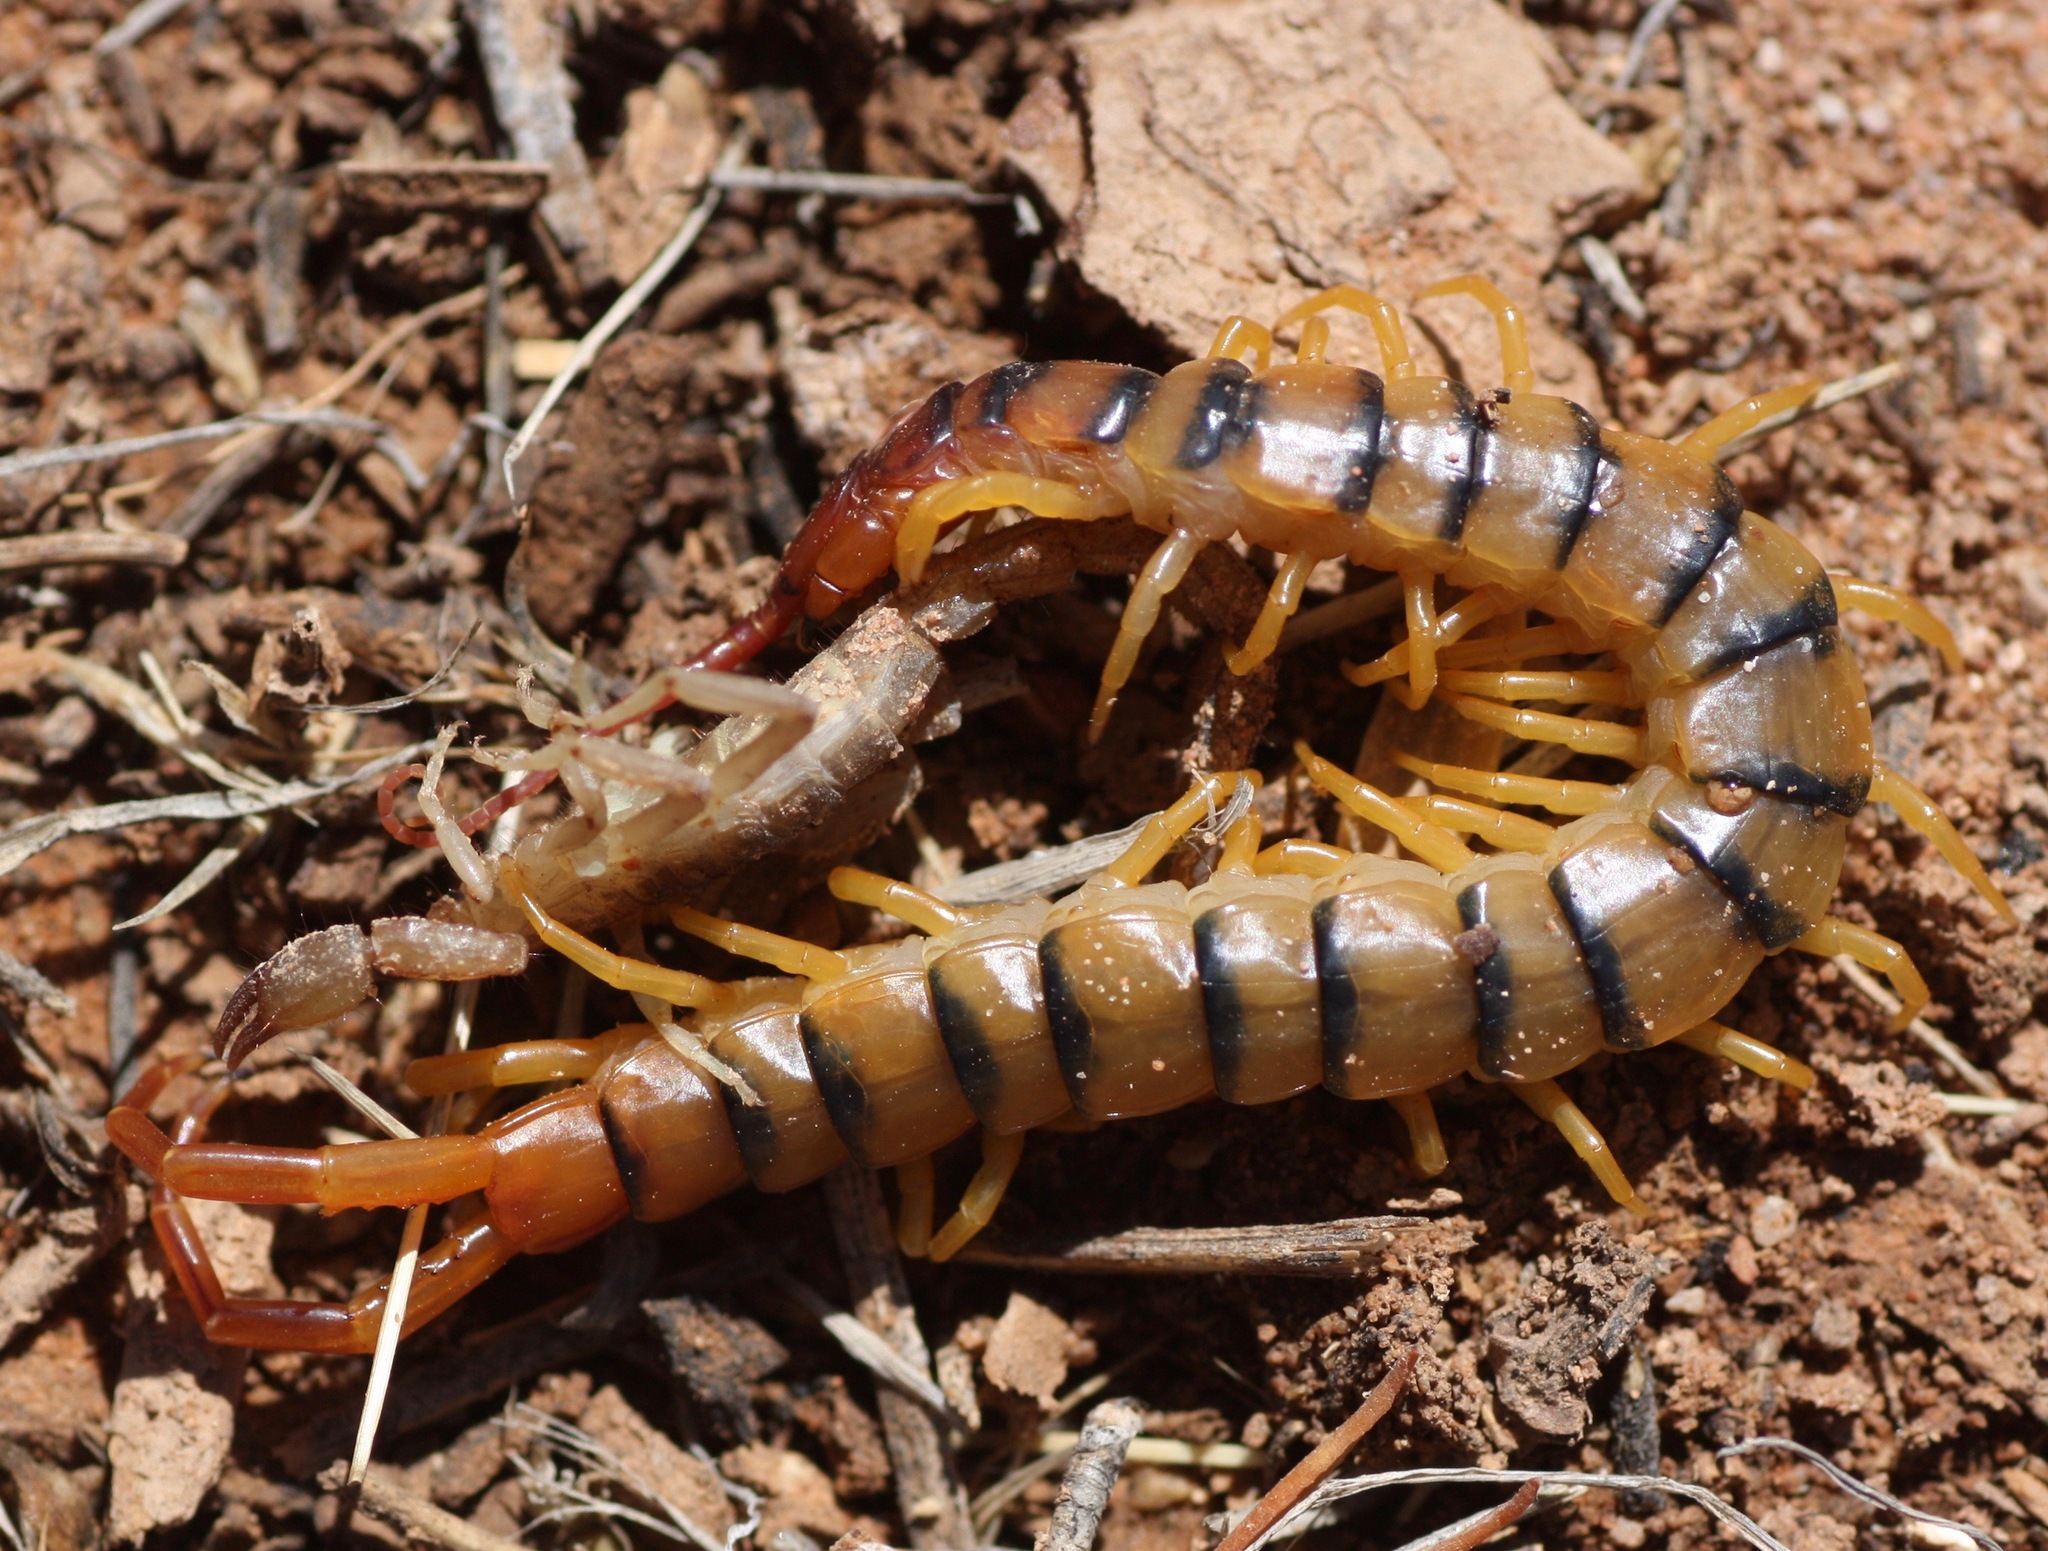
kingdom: Animalia
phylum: Arthropoda
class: Chilopoda
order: Scolopendromorpha
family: Scolopendridae
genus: Scolopendra
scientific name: Scolopendra polymorpha
